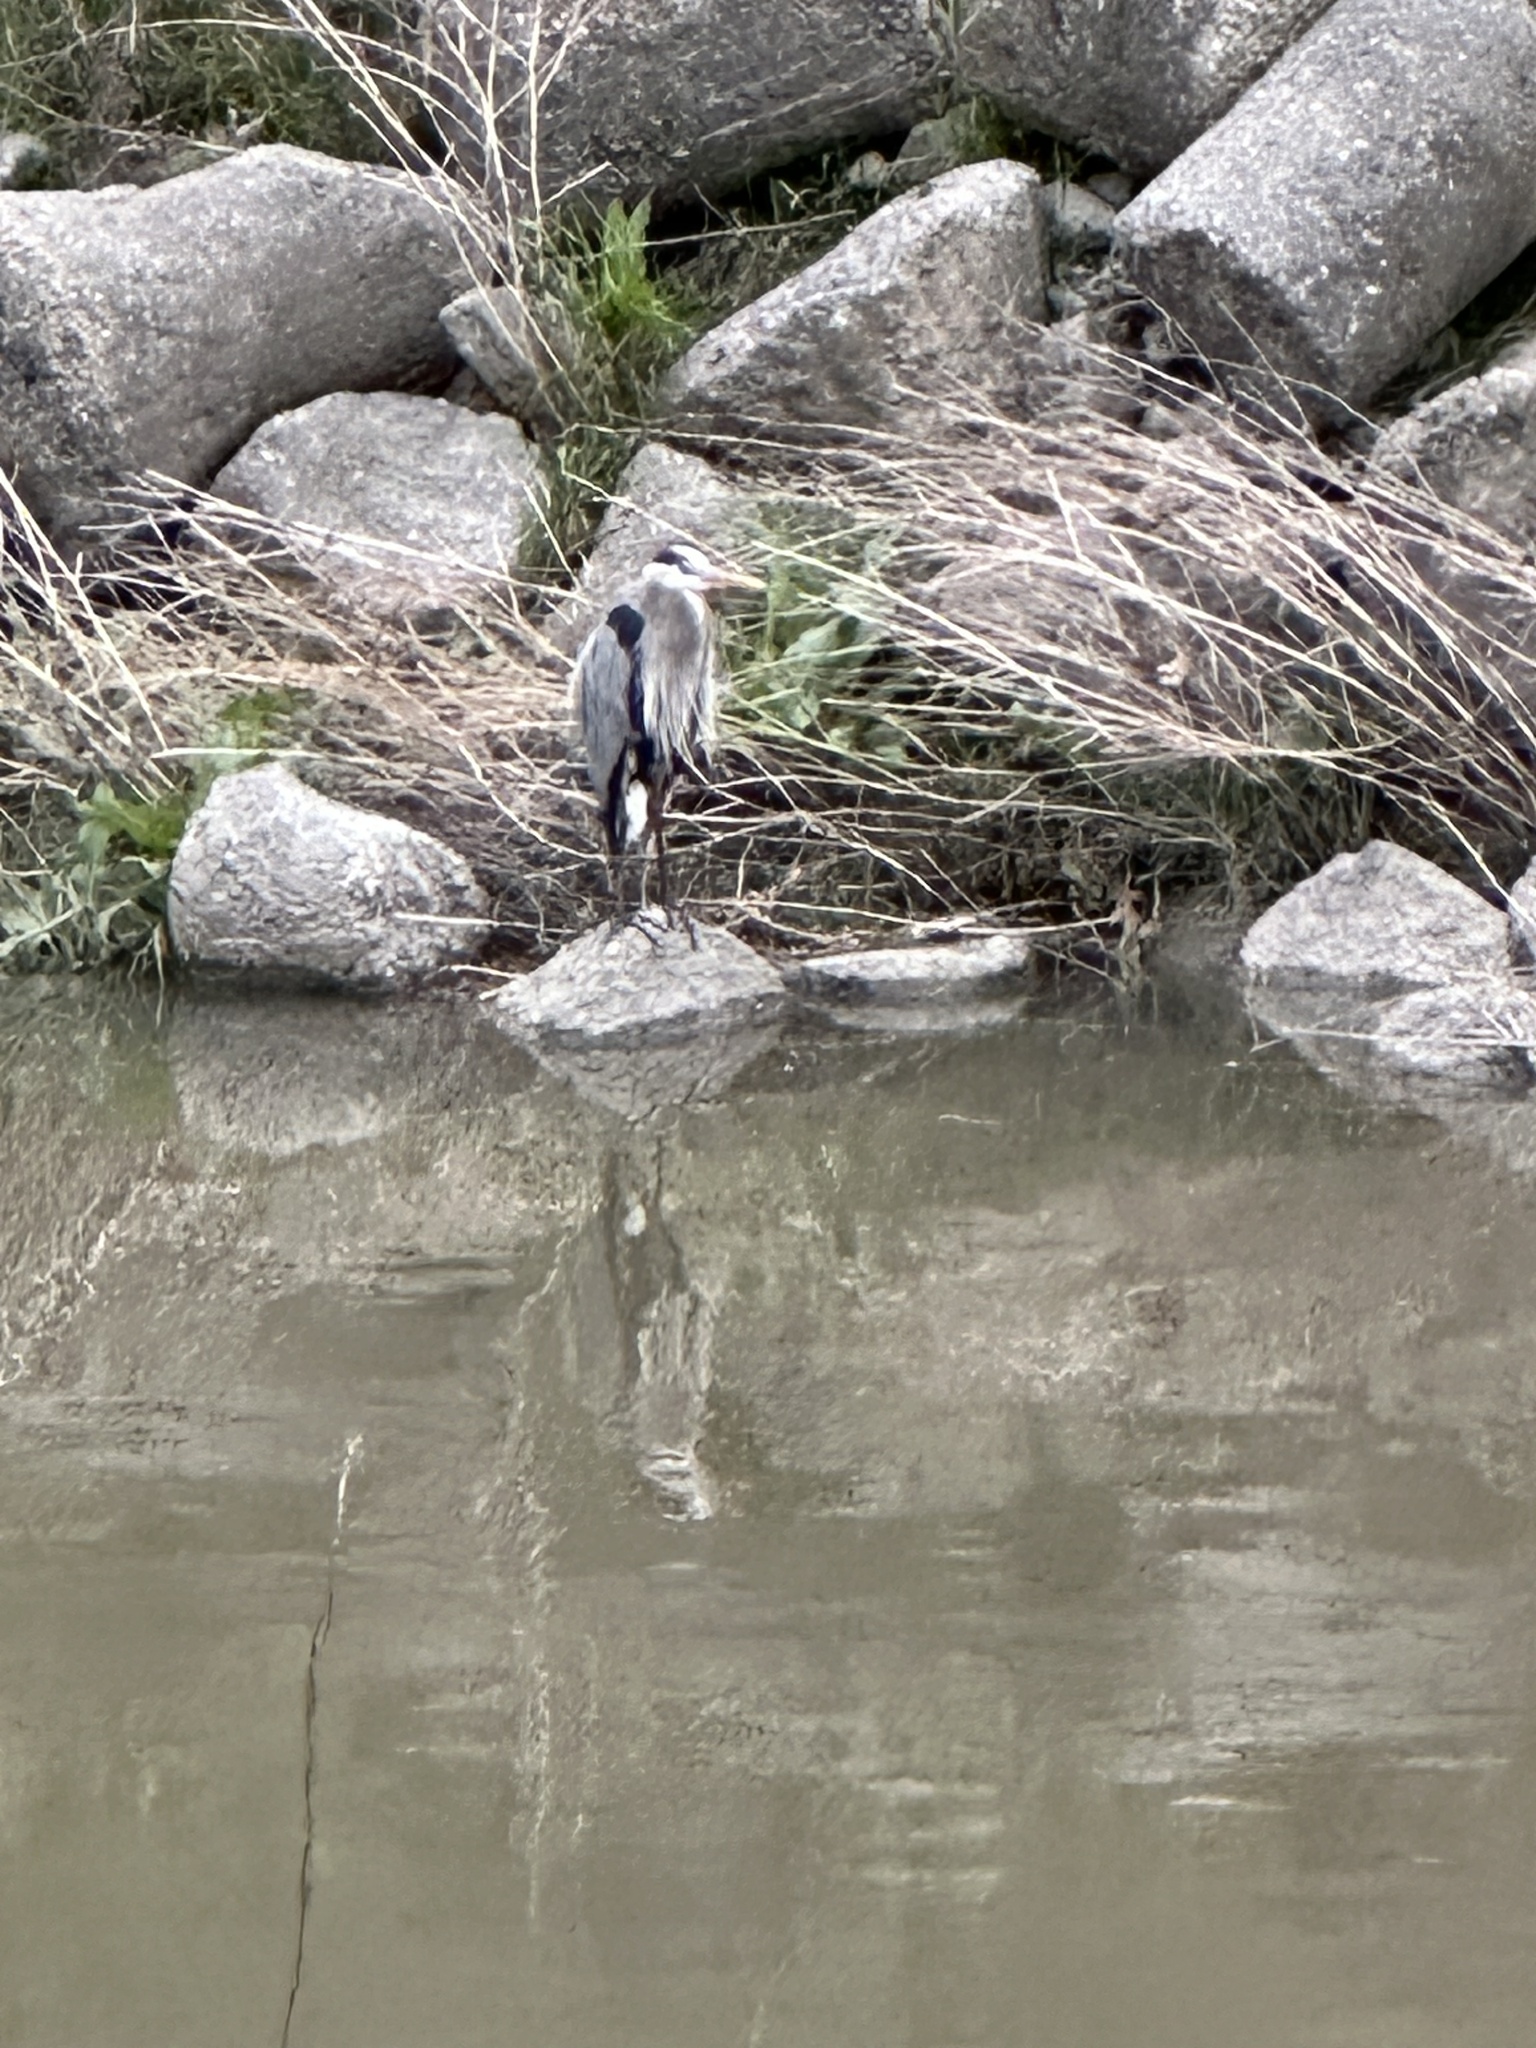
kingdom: Animalia
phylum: Chordata
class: Aves
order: Pelecaniformes
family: Ardeidae
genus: Ardea
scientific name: Ardea herodias
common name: Great blue heron
